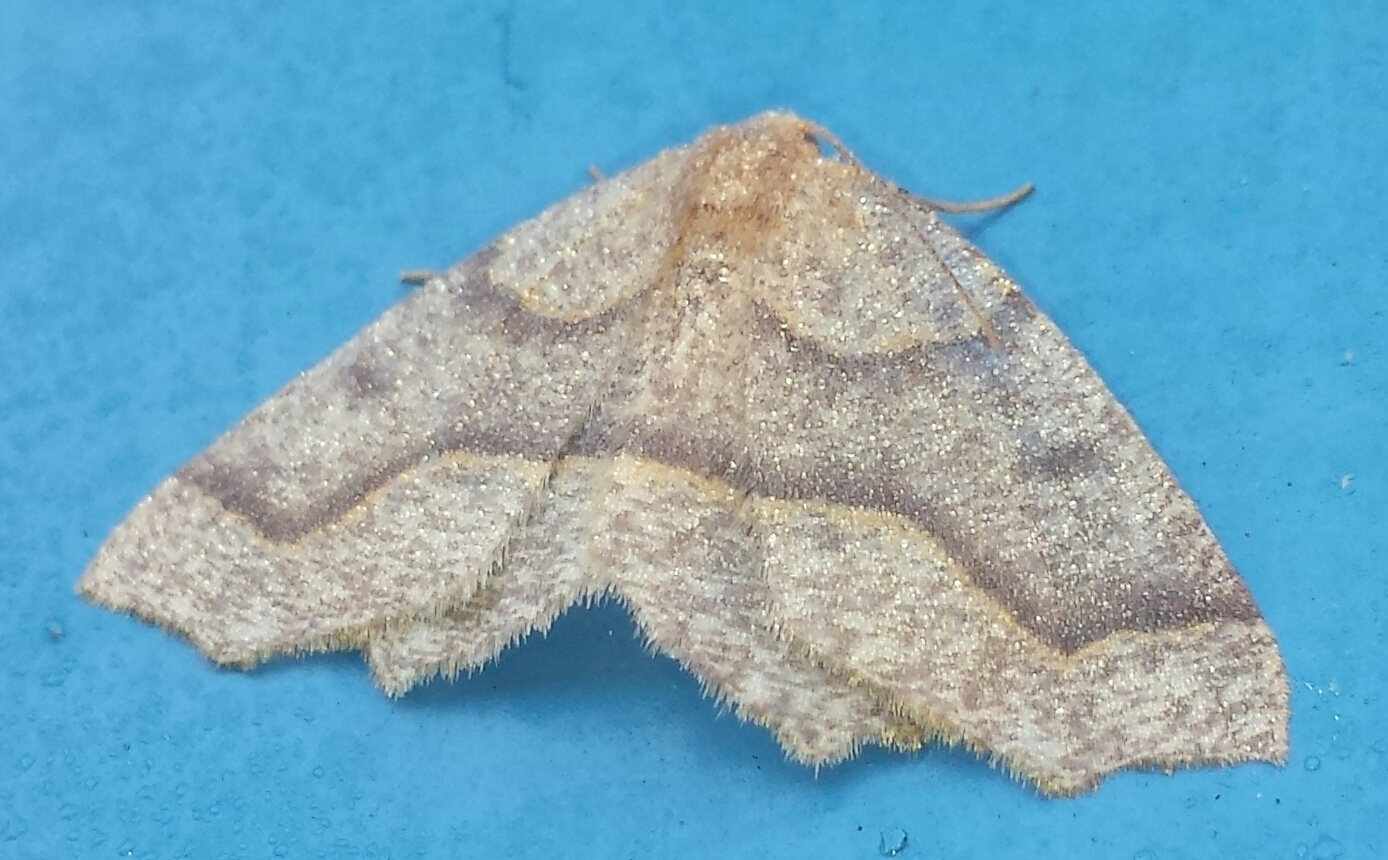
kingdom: Animalia
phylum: Arthropoda
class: Insecta
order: Lepidoptera
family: Geometridae
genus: Lambdina
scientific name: Lambdina fiscellaria
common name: Hemlock looper
